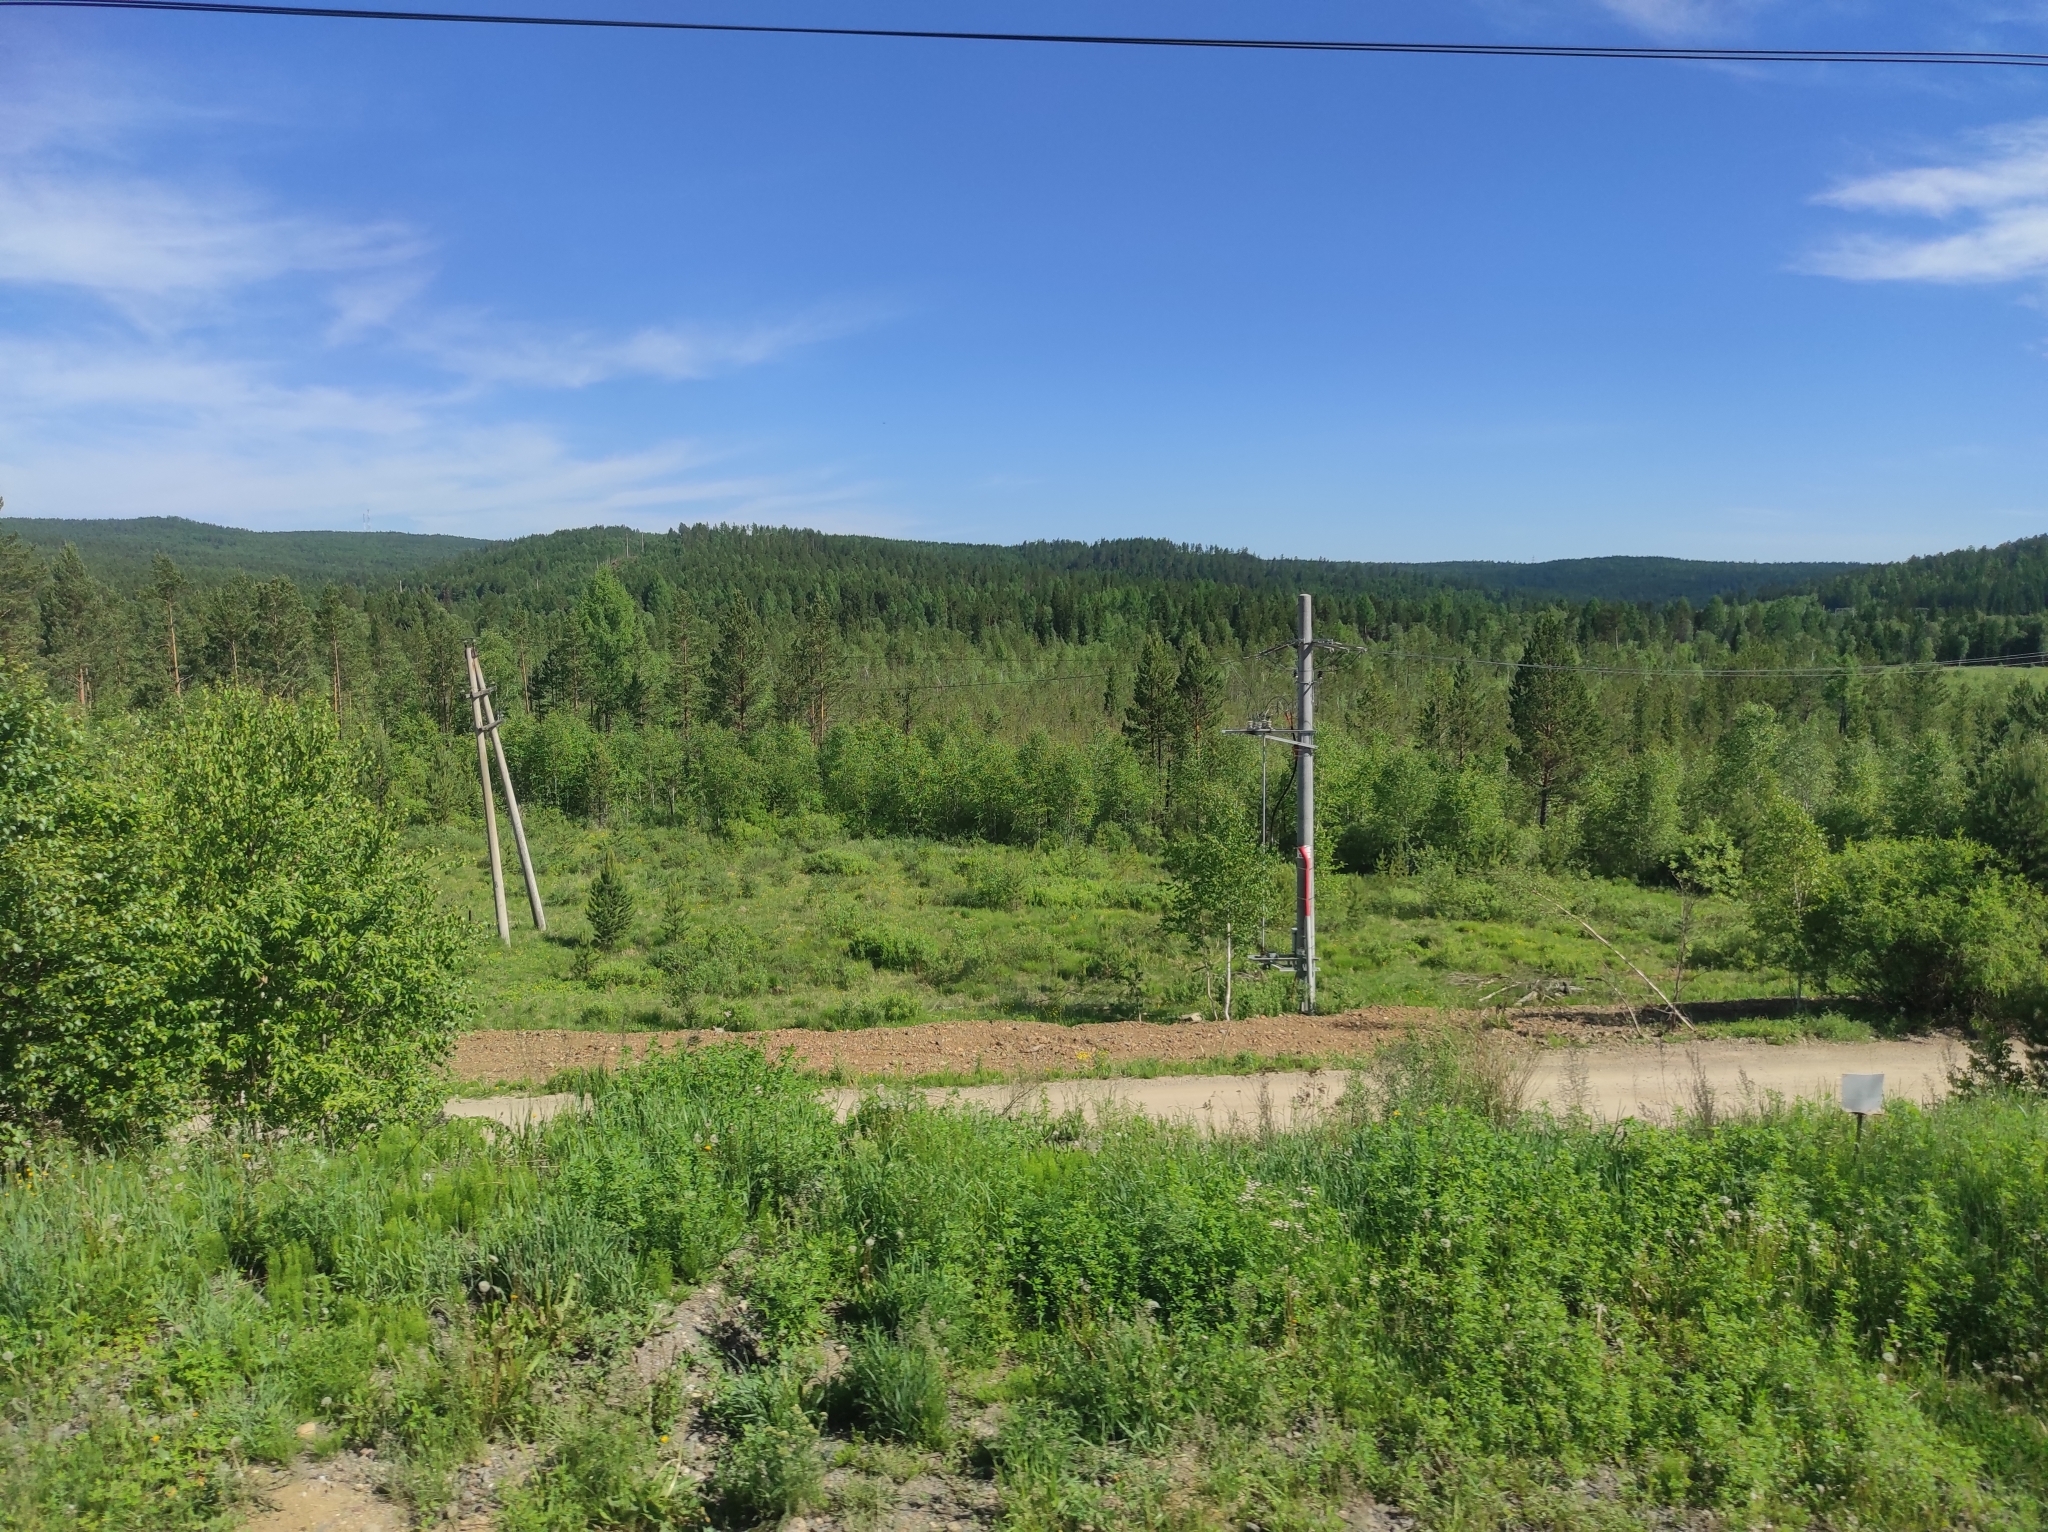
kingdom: Plantae
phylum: Tracheophyta
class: Pinopsida
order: Pinales
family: Pinaceae
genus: Pinus
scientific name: Pinus sylvestris
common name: Scots pine
